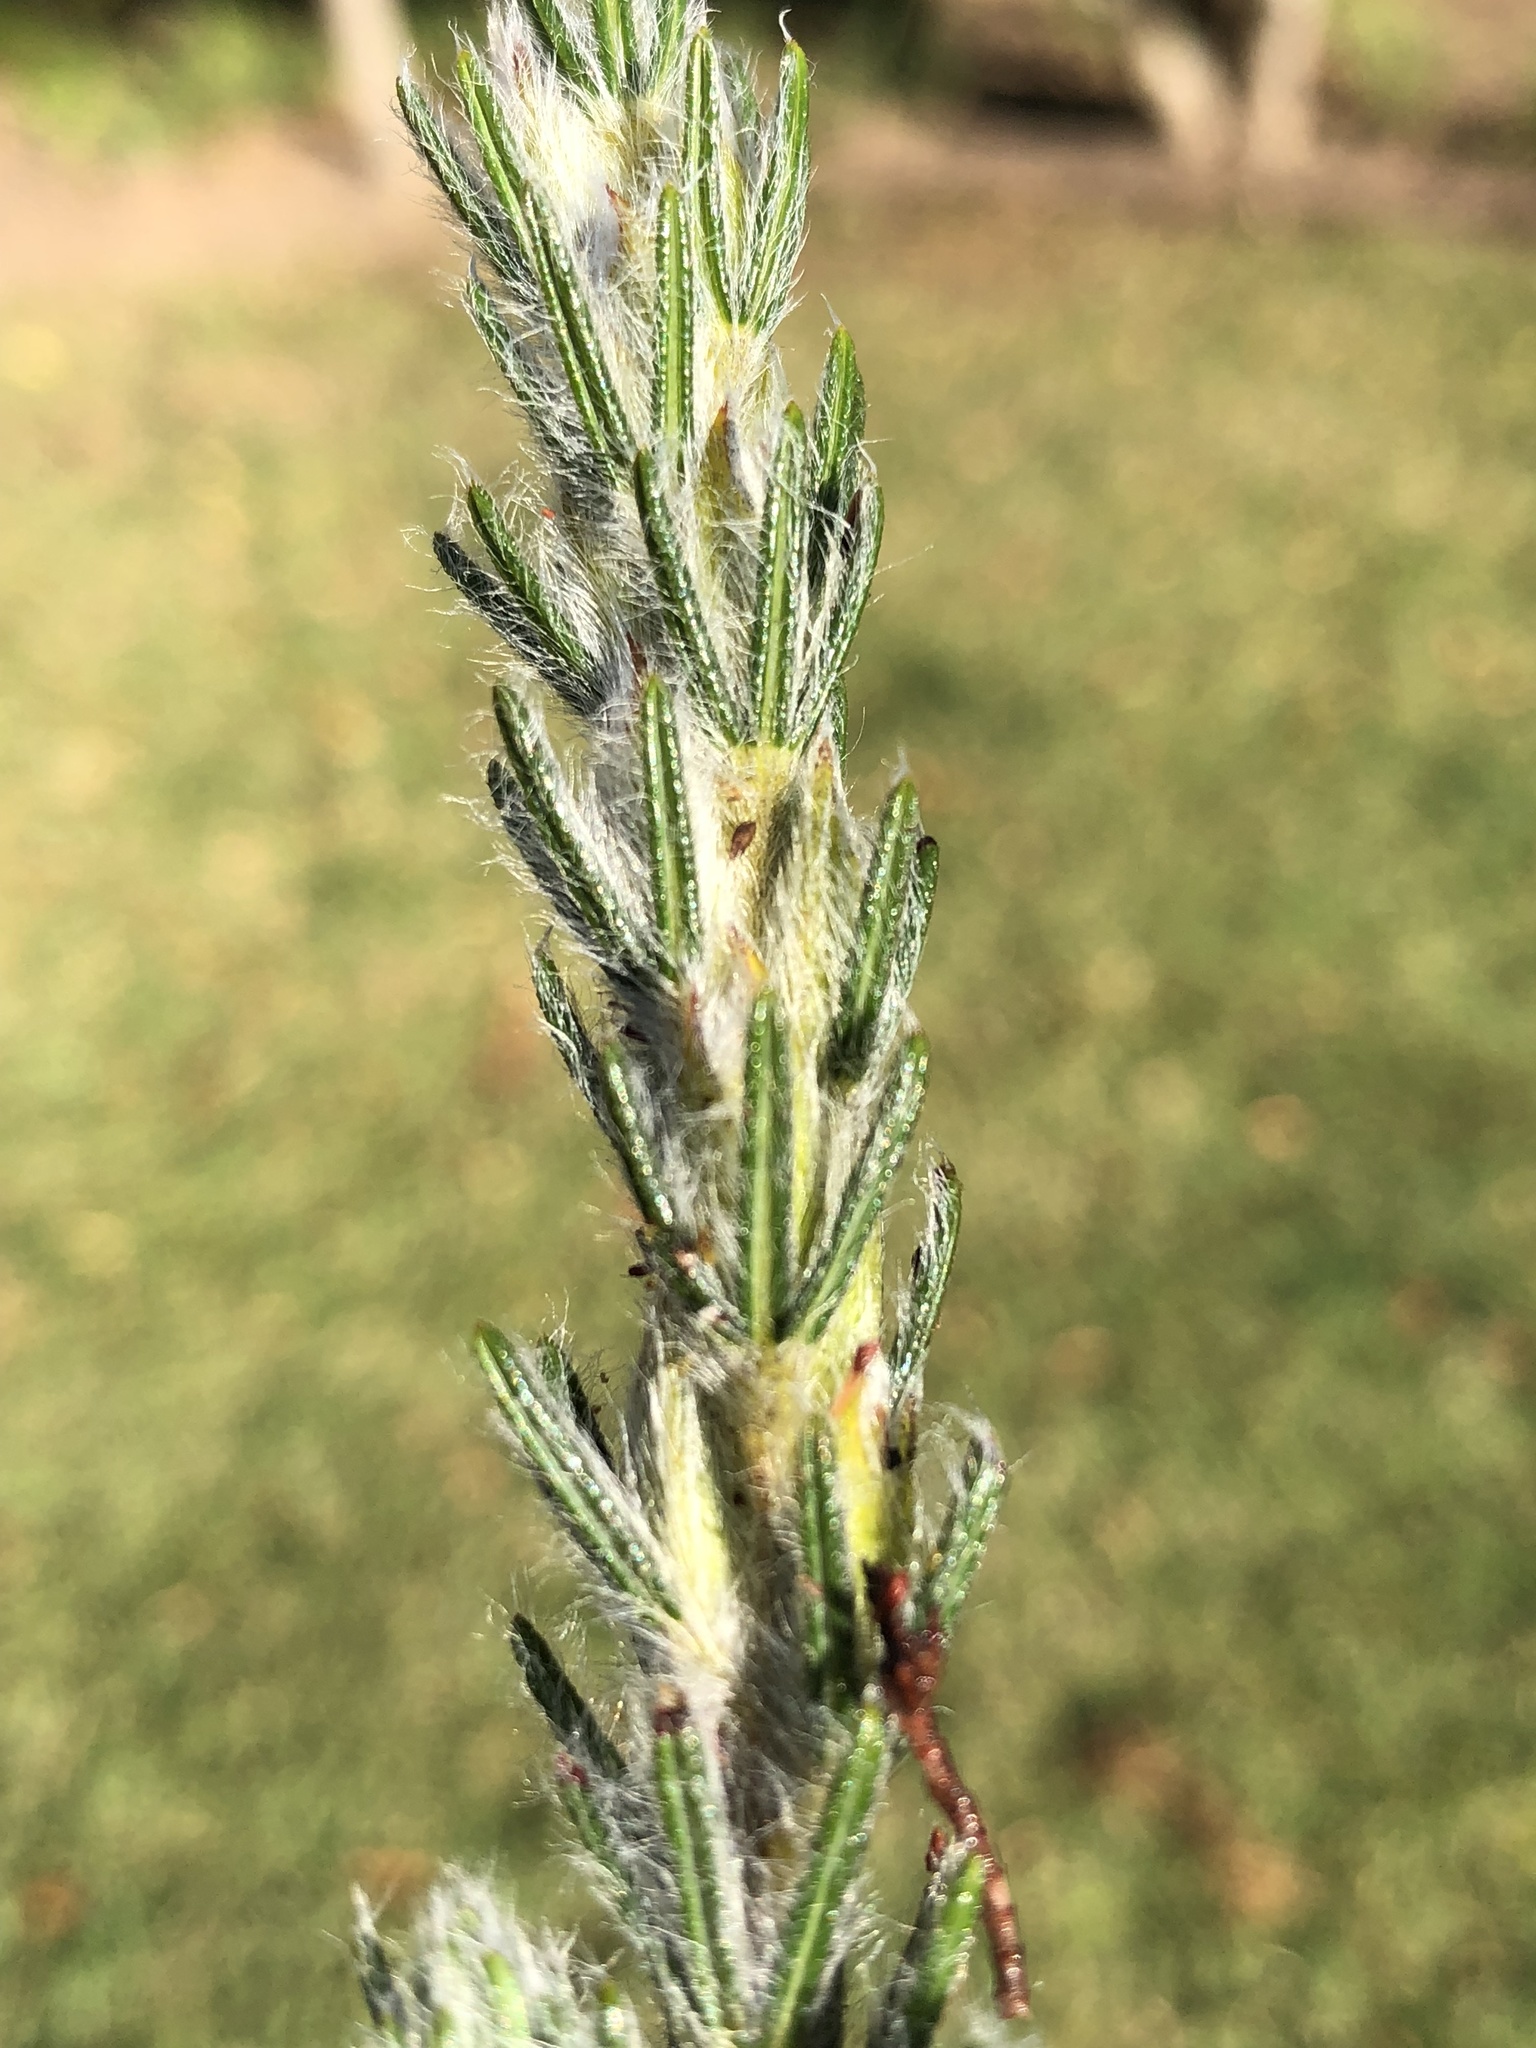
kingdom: Plantae
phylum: Tracheophyta
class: Magnoliopsida
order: Fabales
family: Fabaceae
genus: Cyclopia
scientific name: Cyclopia alopecuroides
